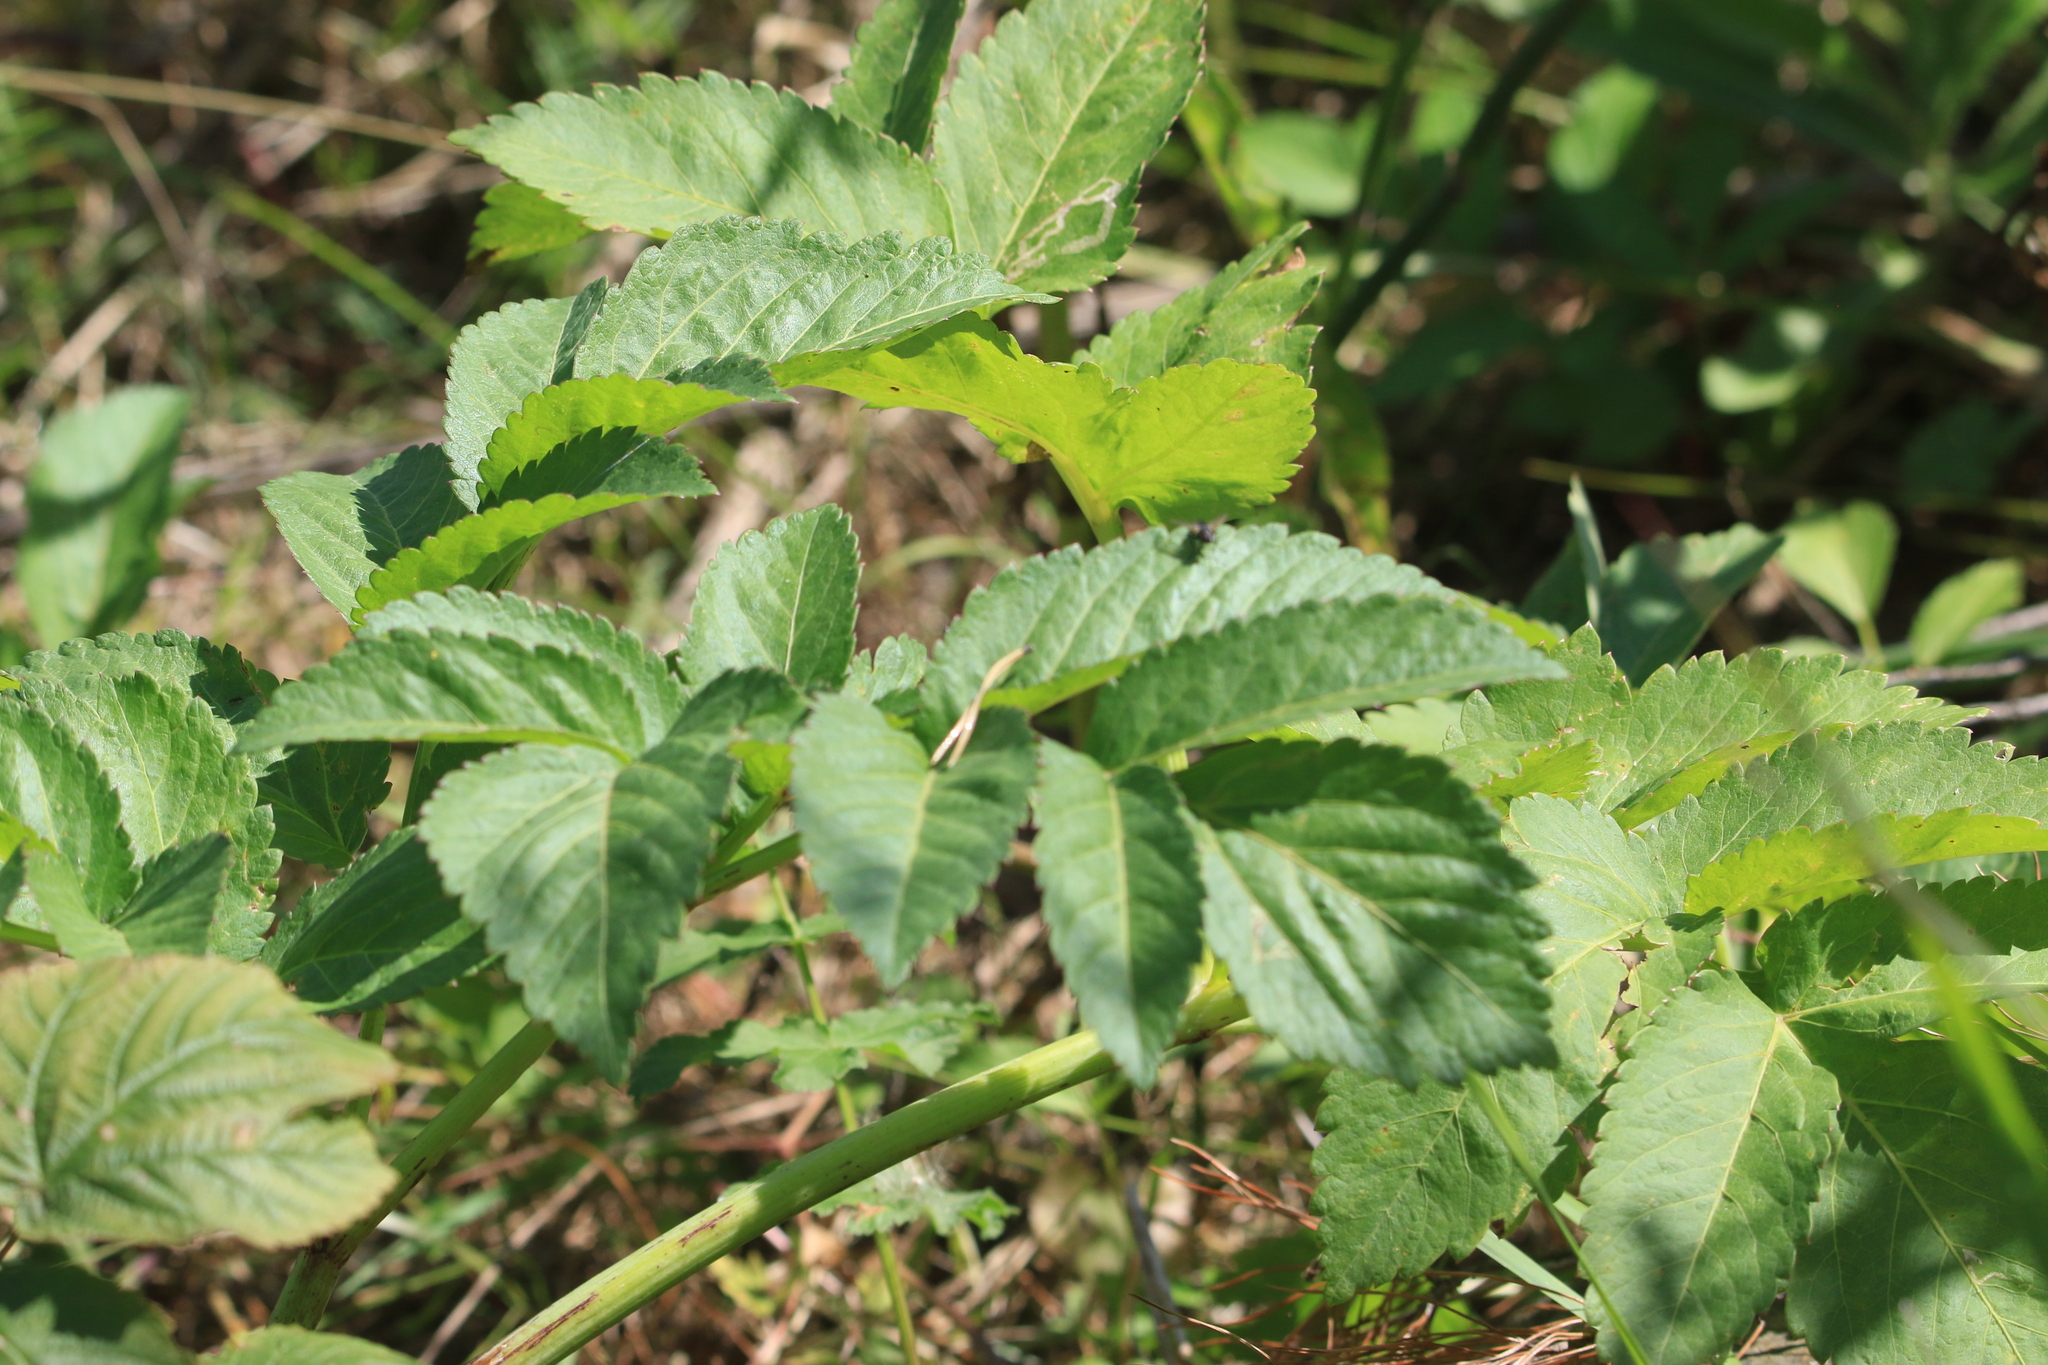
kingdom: Plantae
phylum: Tracheophyta
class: Magnoliopsida
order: Apiales
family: Apiaceae
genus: Angelica
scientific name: Angelica decurrens
